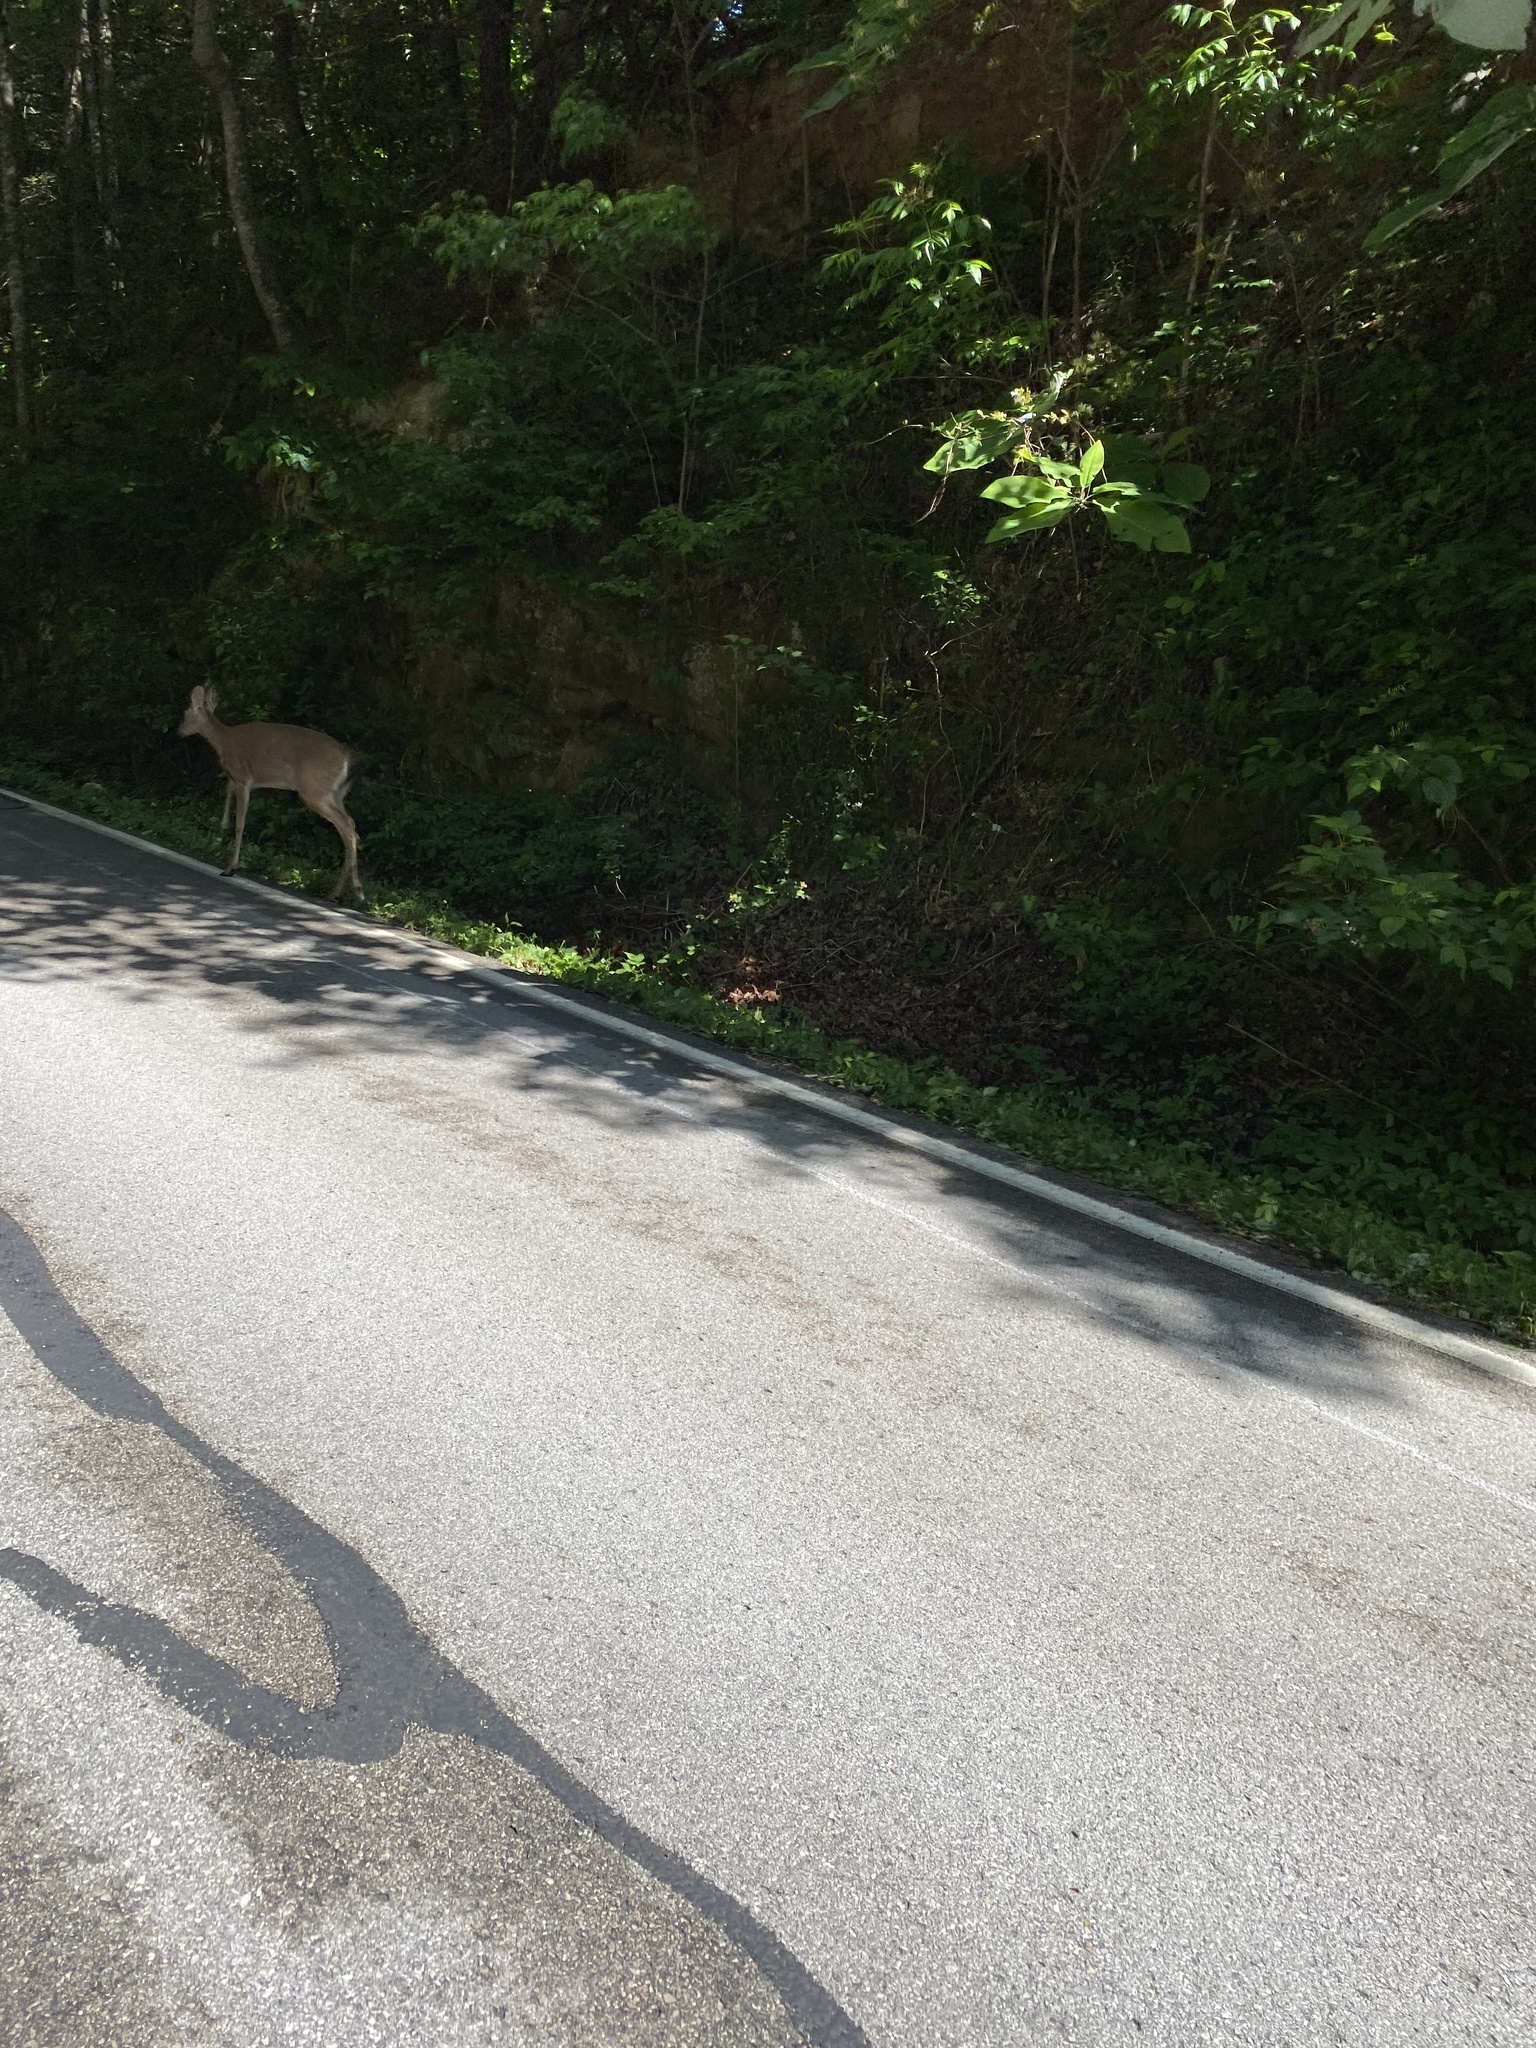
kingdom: Animalia
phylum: Chordata
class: Mammalia
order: Artiodactyla
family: Cervidae
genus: Odocoileus
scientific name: Odocoileus virginianus
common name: White-tailed deer
